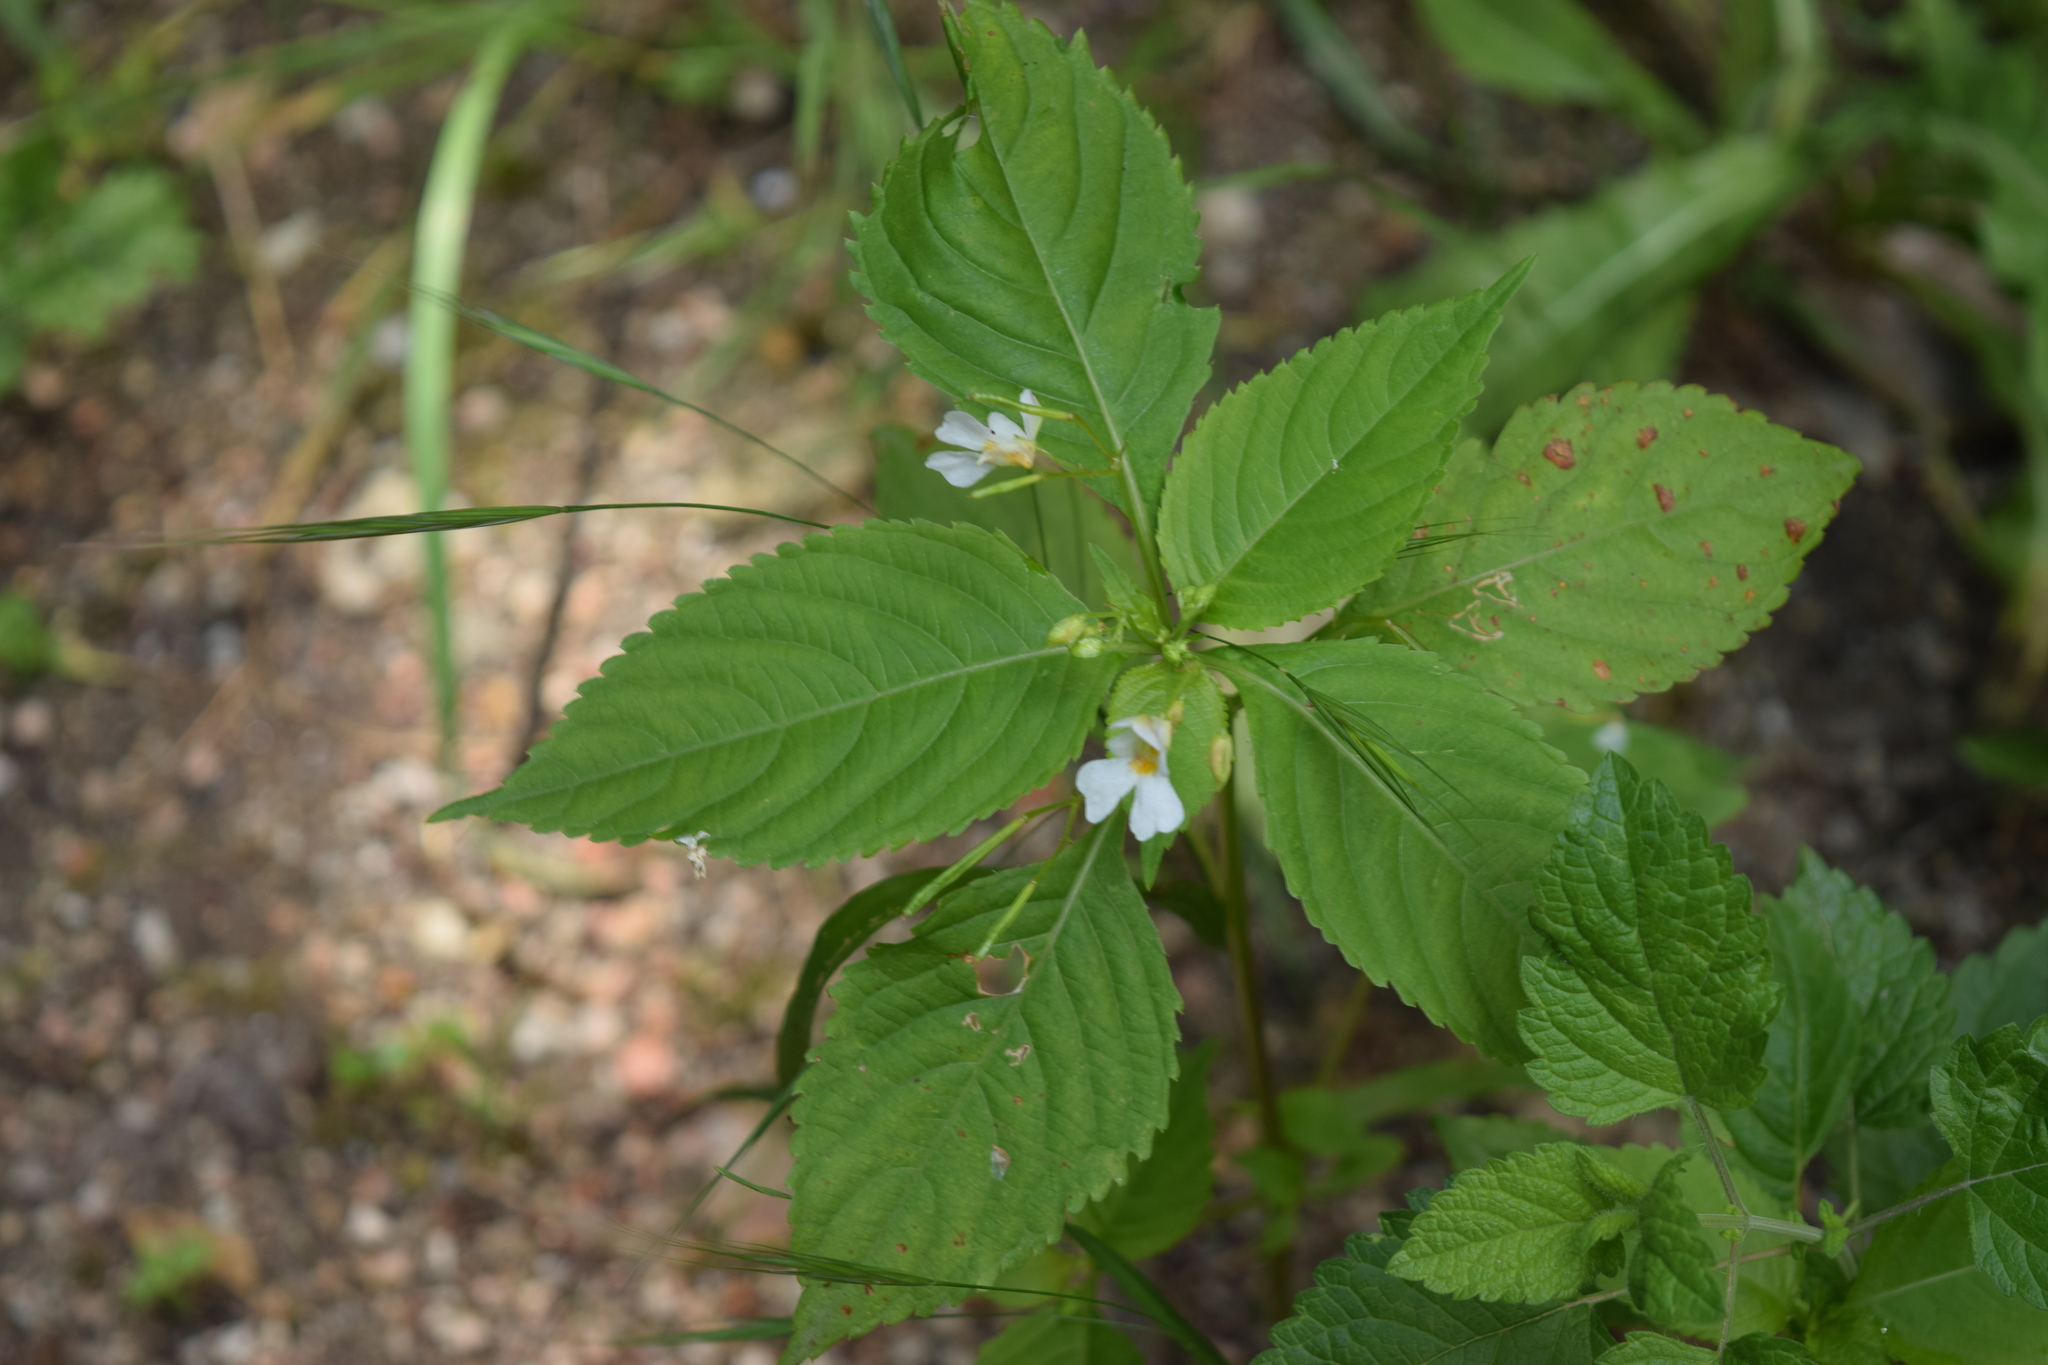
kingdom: Plantae
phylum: Tracheophyta
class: Magnoliopsida
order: Ericales
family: Balsaminaceae
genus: Impatiens
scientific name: Impatiens parviflora
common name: Small balsam
